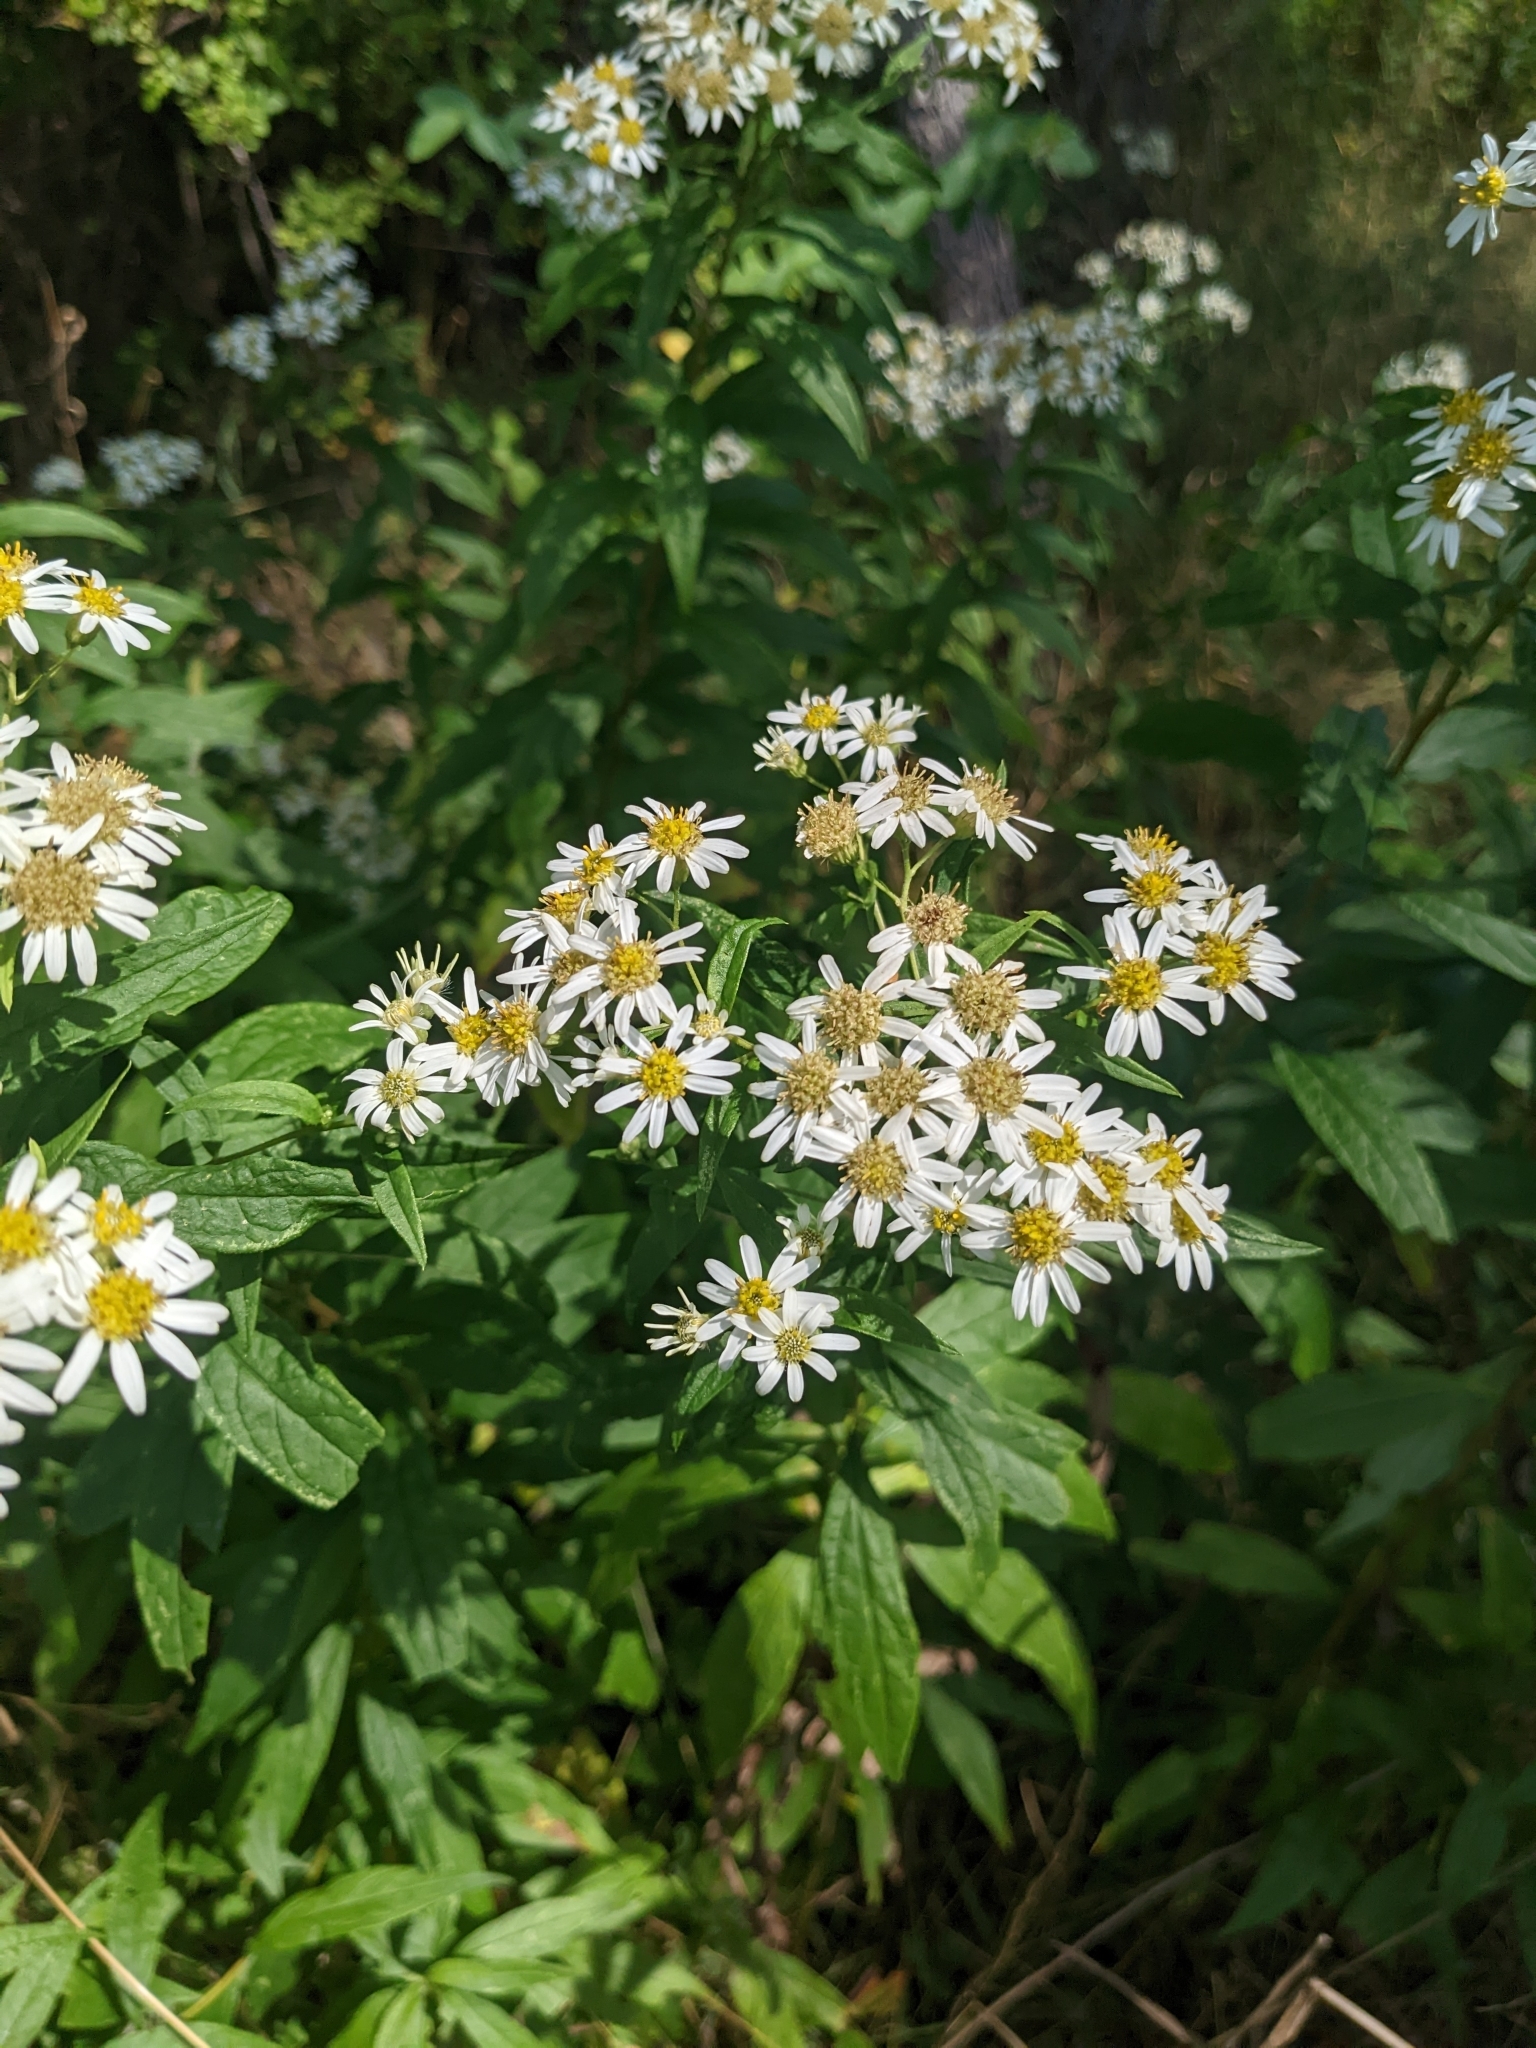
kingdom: Plantae
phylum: Tracheophyta
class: Magnoliopsida
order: Asterales
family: Asteraceae
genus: Doellingeria
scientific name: Doellingeria umbellata
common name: Flat-top white aster
